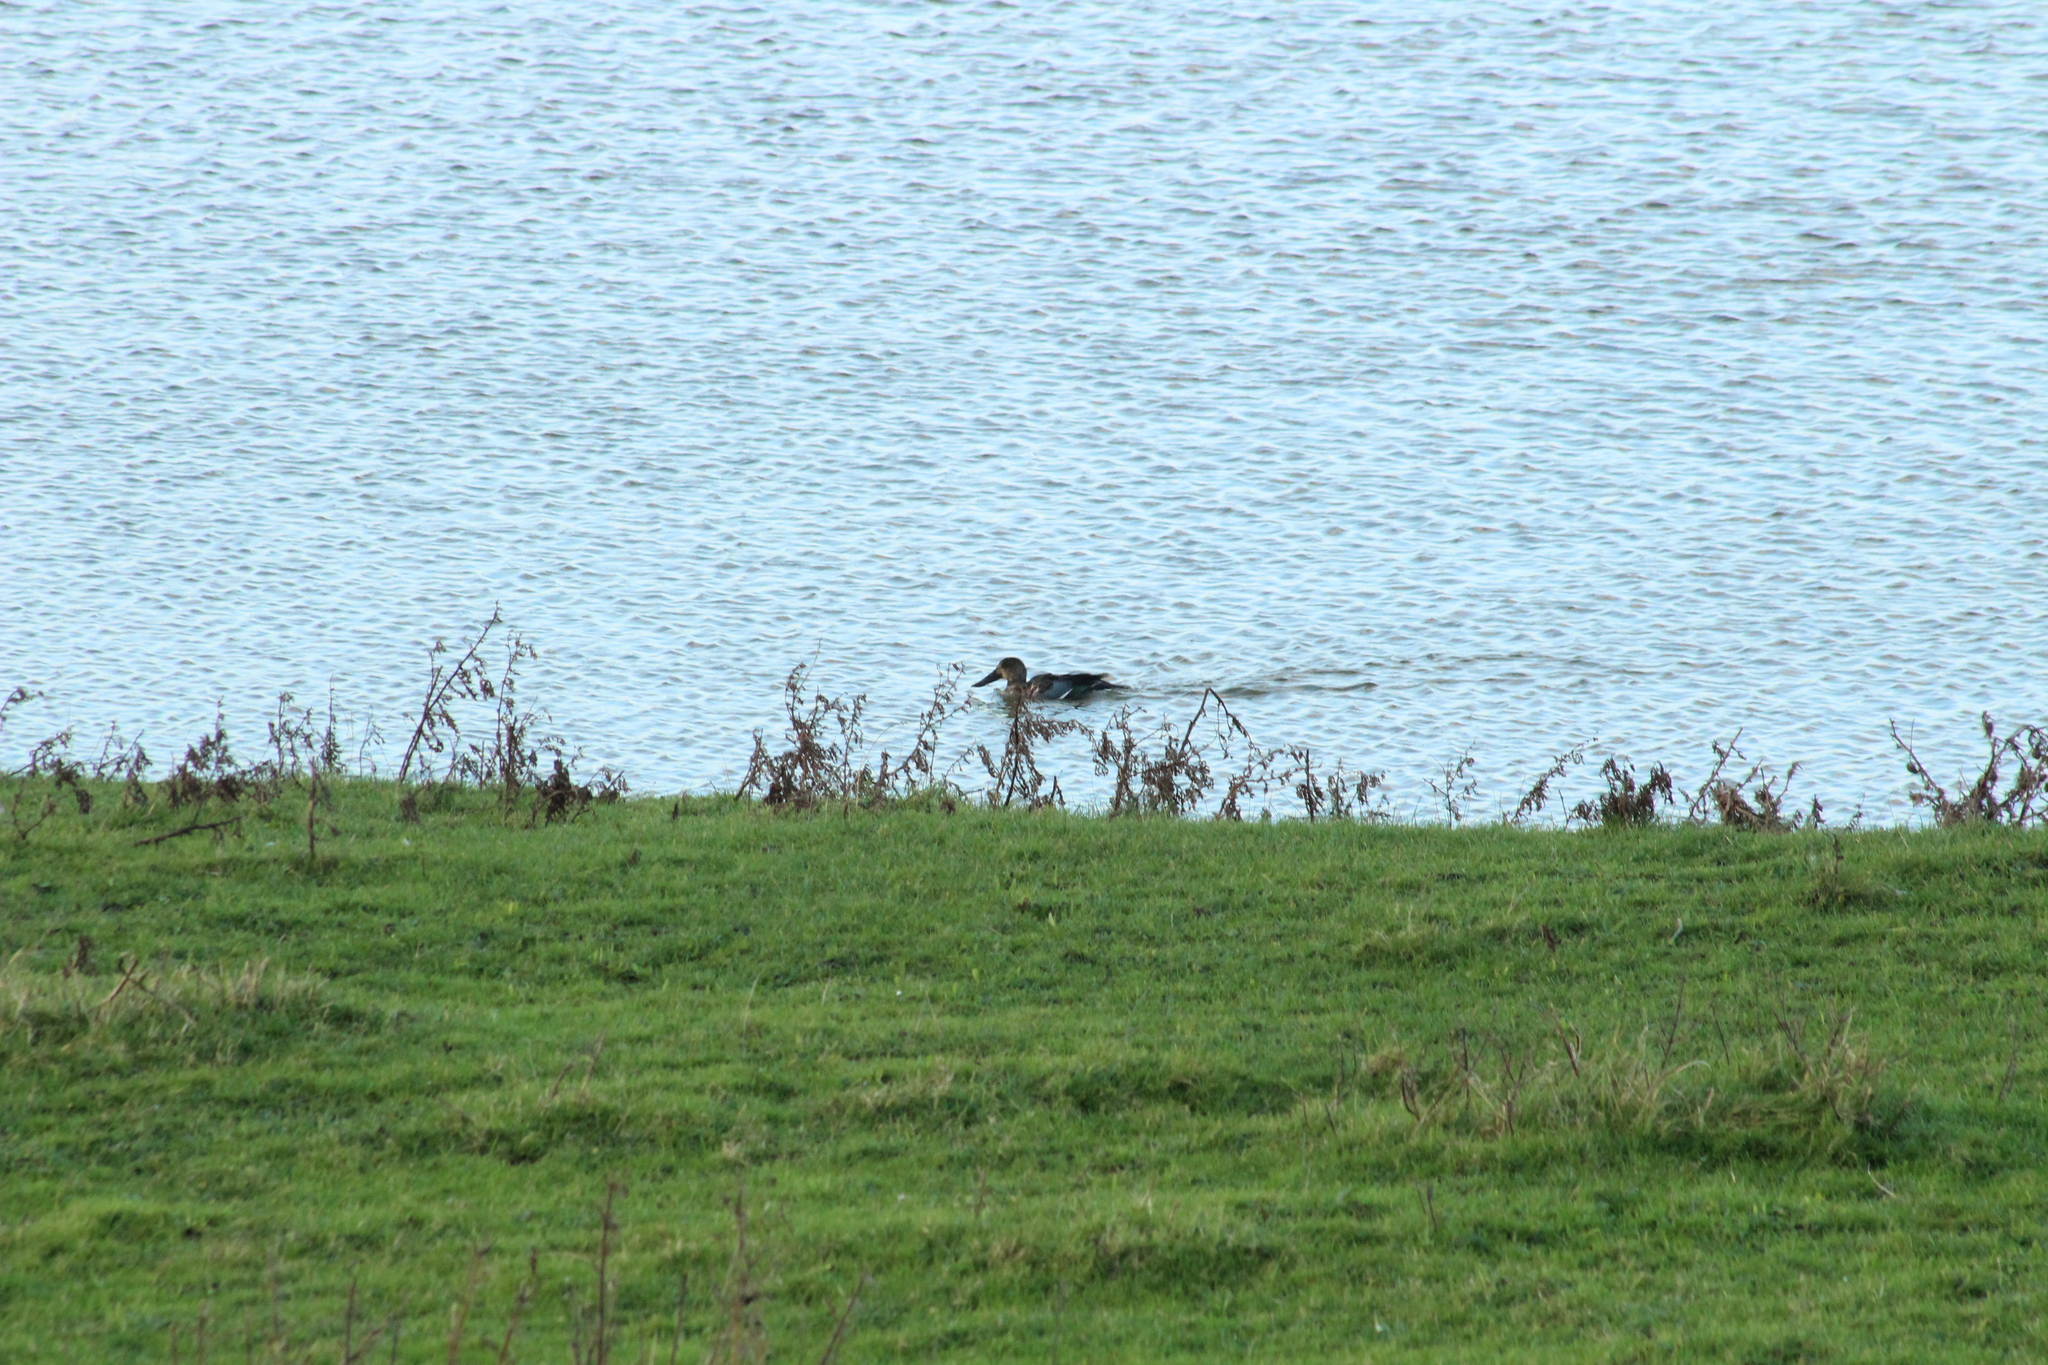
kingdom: Animalia
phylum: Chordata
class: Aves
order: Anseriformes
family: Anatidae
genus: Spatula
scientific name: Spatula clypeata
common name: Northern shoveler
